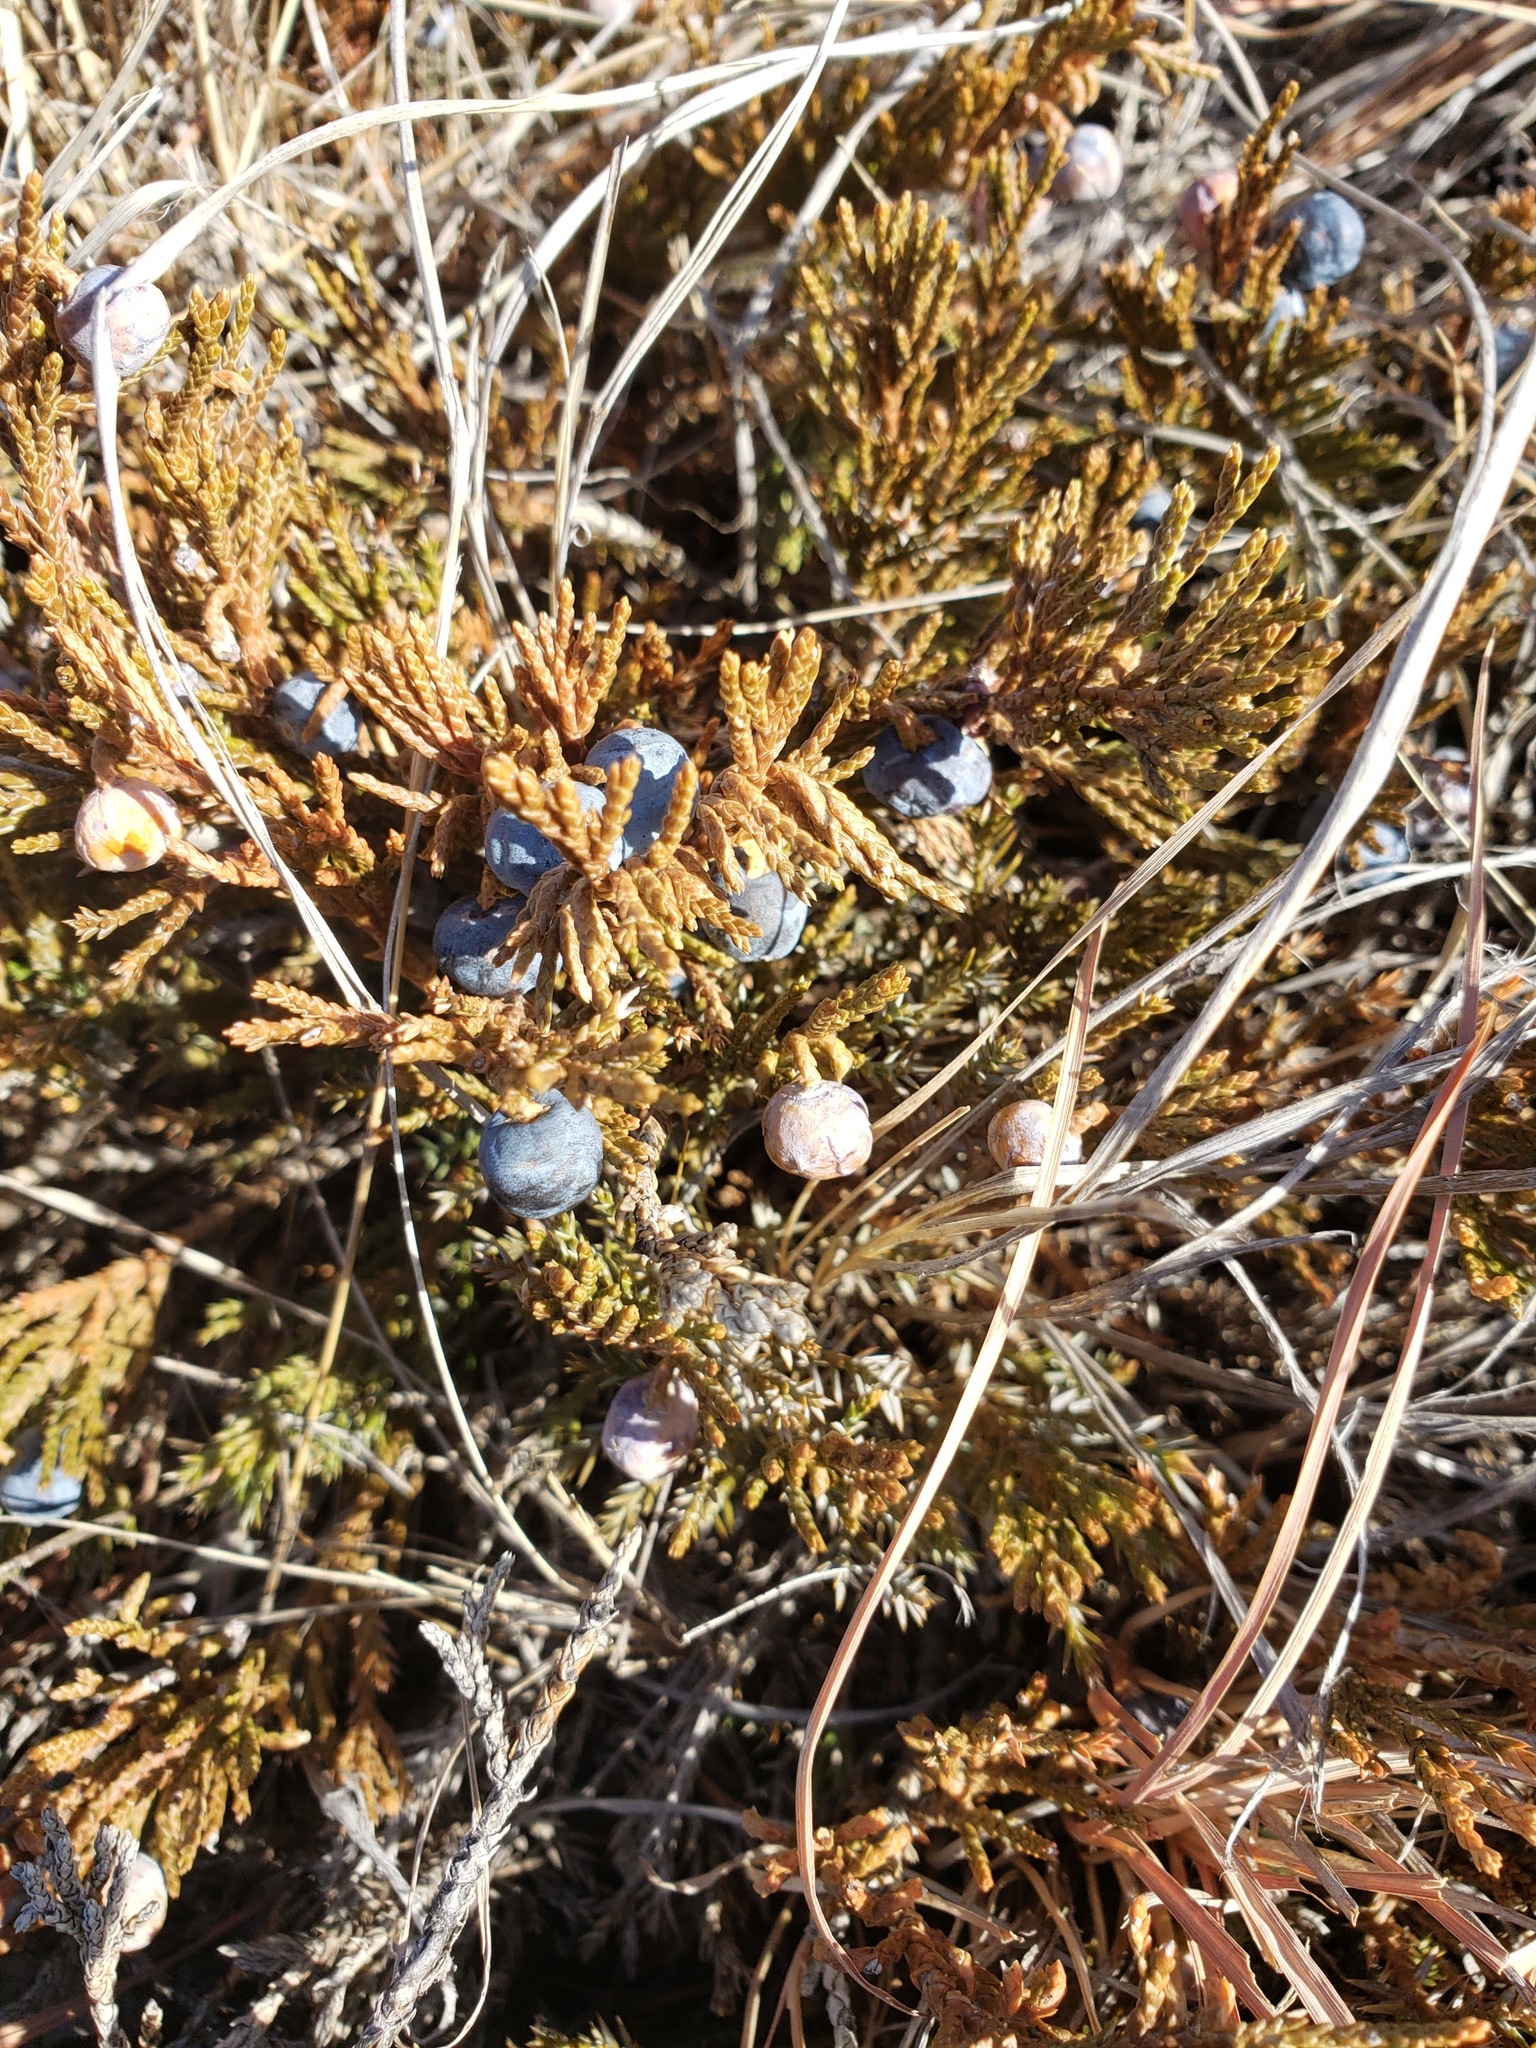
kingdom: Plantae
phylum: Tracheophyta
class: Pinopsida
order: Pinales
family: Cupressaceae
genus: Juniperus
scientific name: Juniperus horizontalis
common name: Creeping juniper
